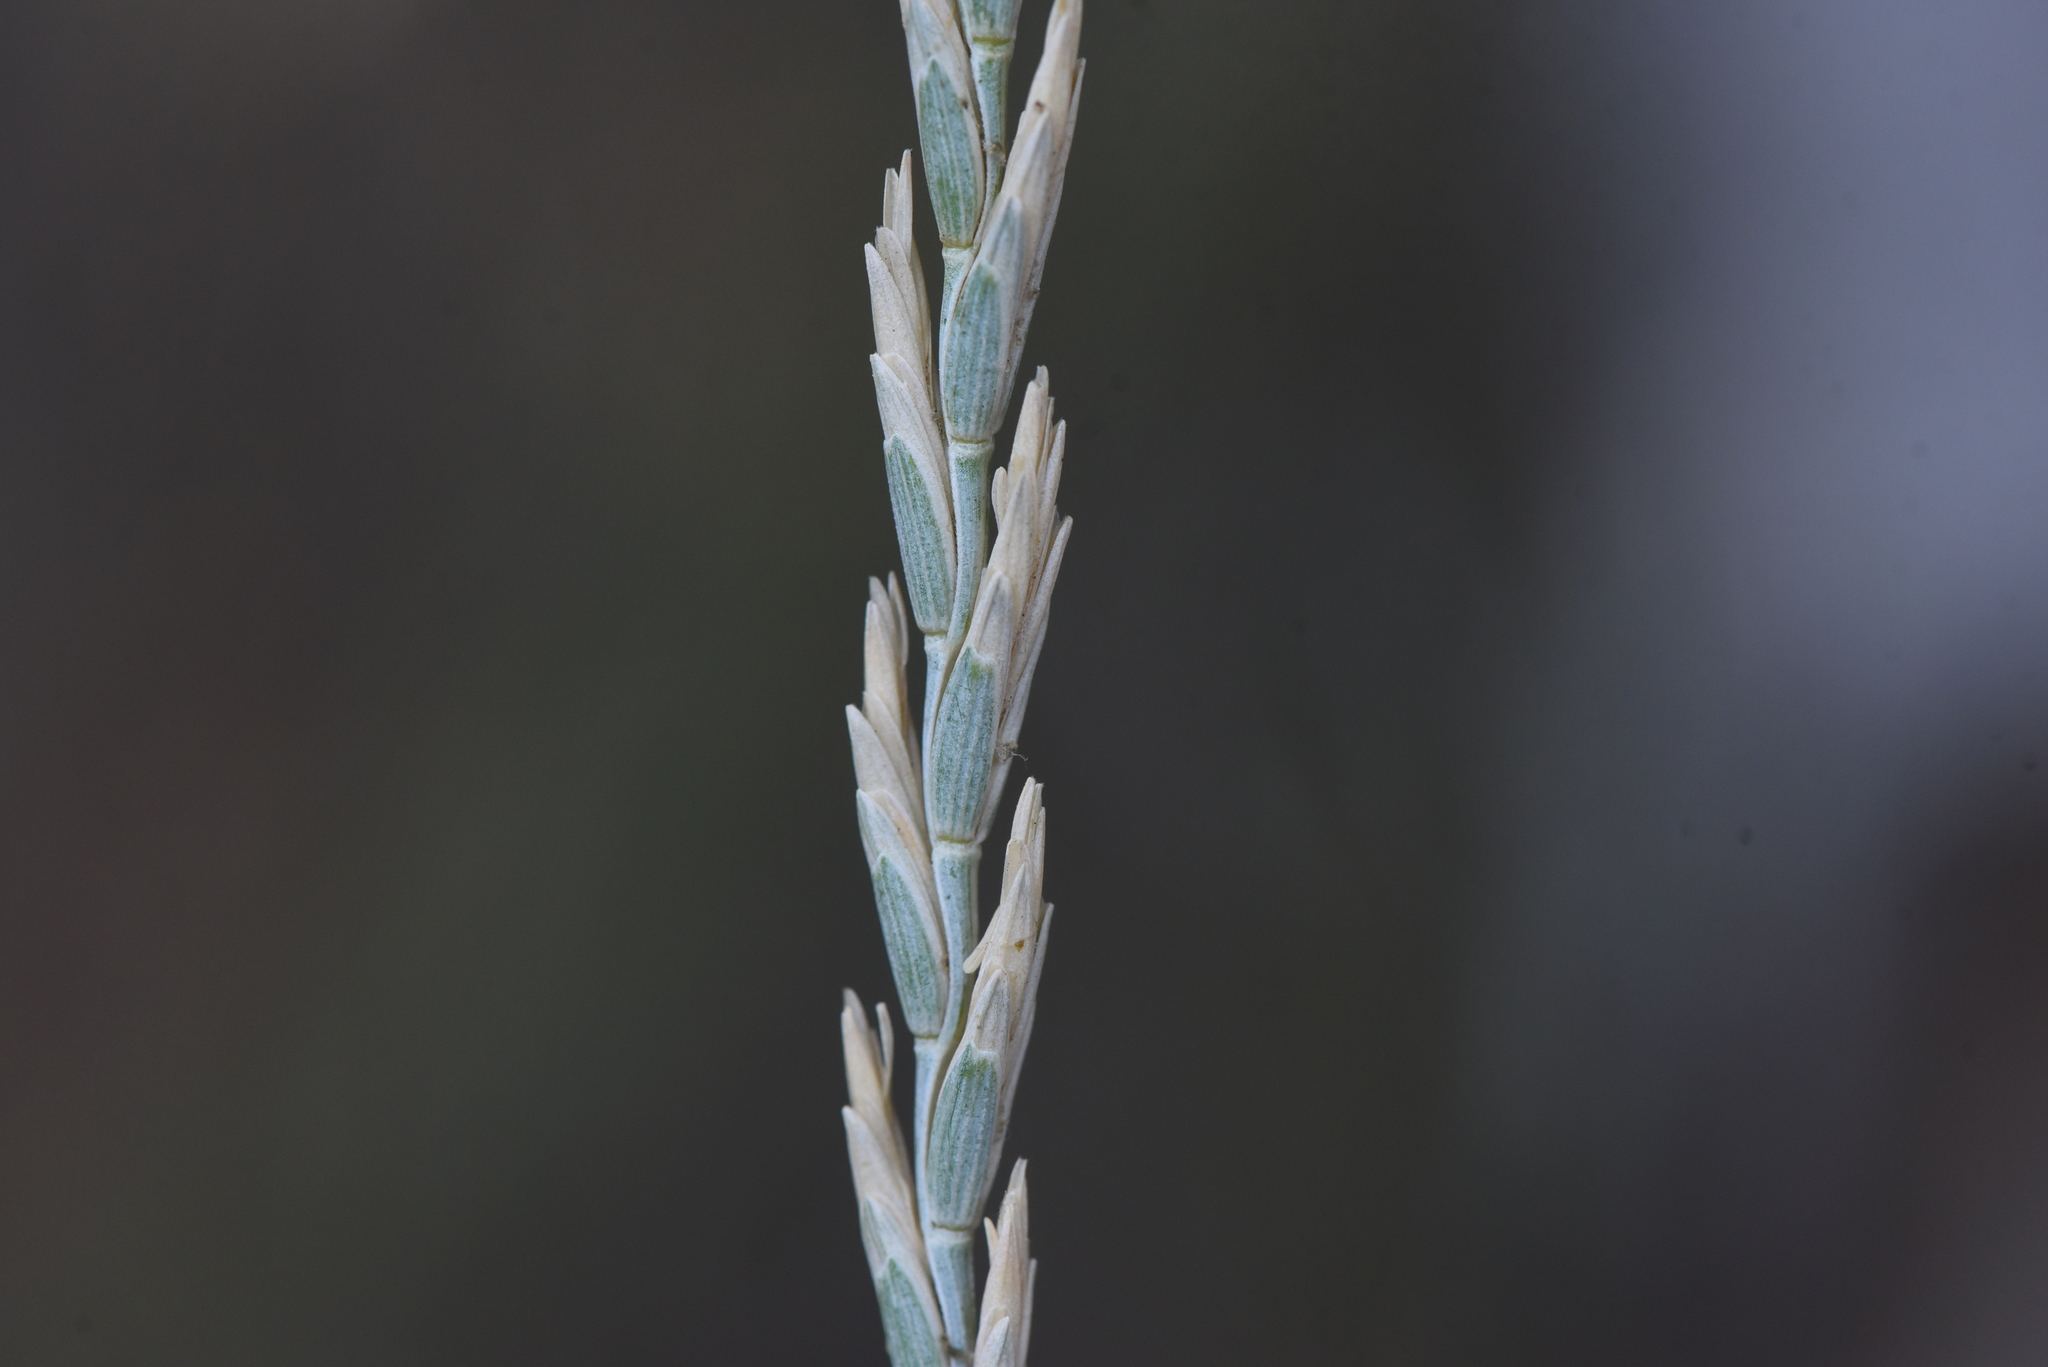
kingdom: Plantae
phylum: Tracheophyta
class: Liliopsida
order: Poales
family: Poaceae
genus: Thinopyrum
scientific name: Thinopyrum intermedium
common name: Intermediate wheatgrass
